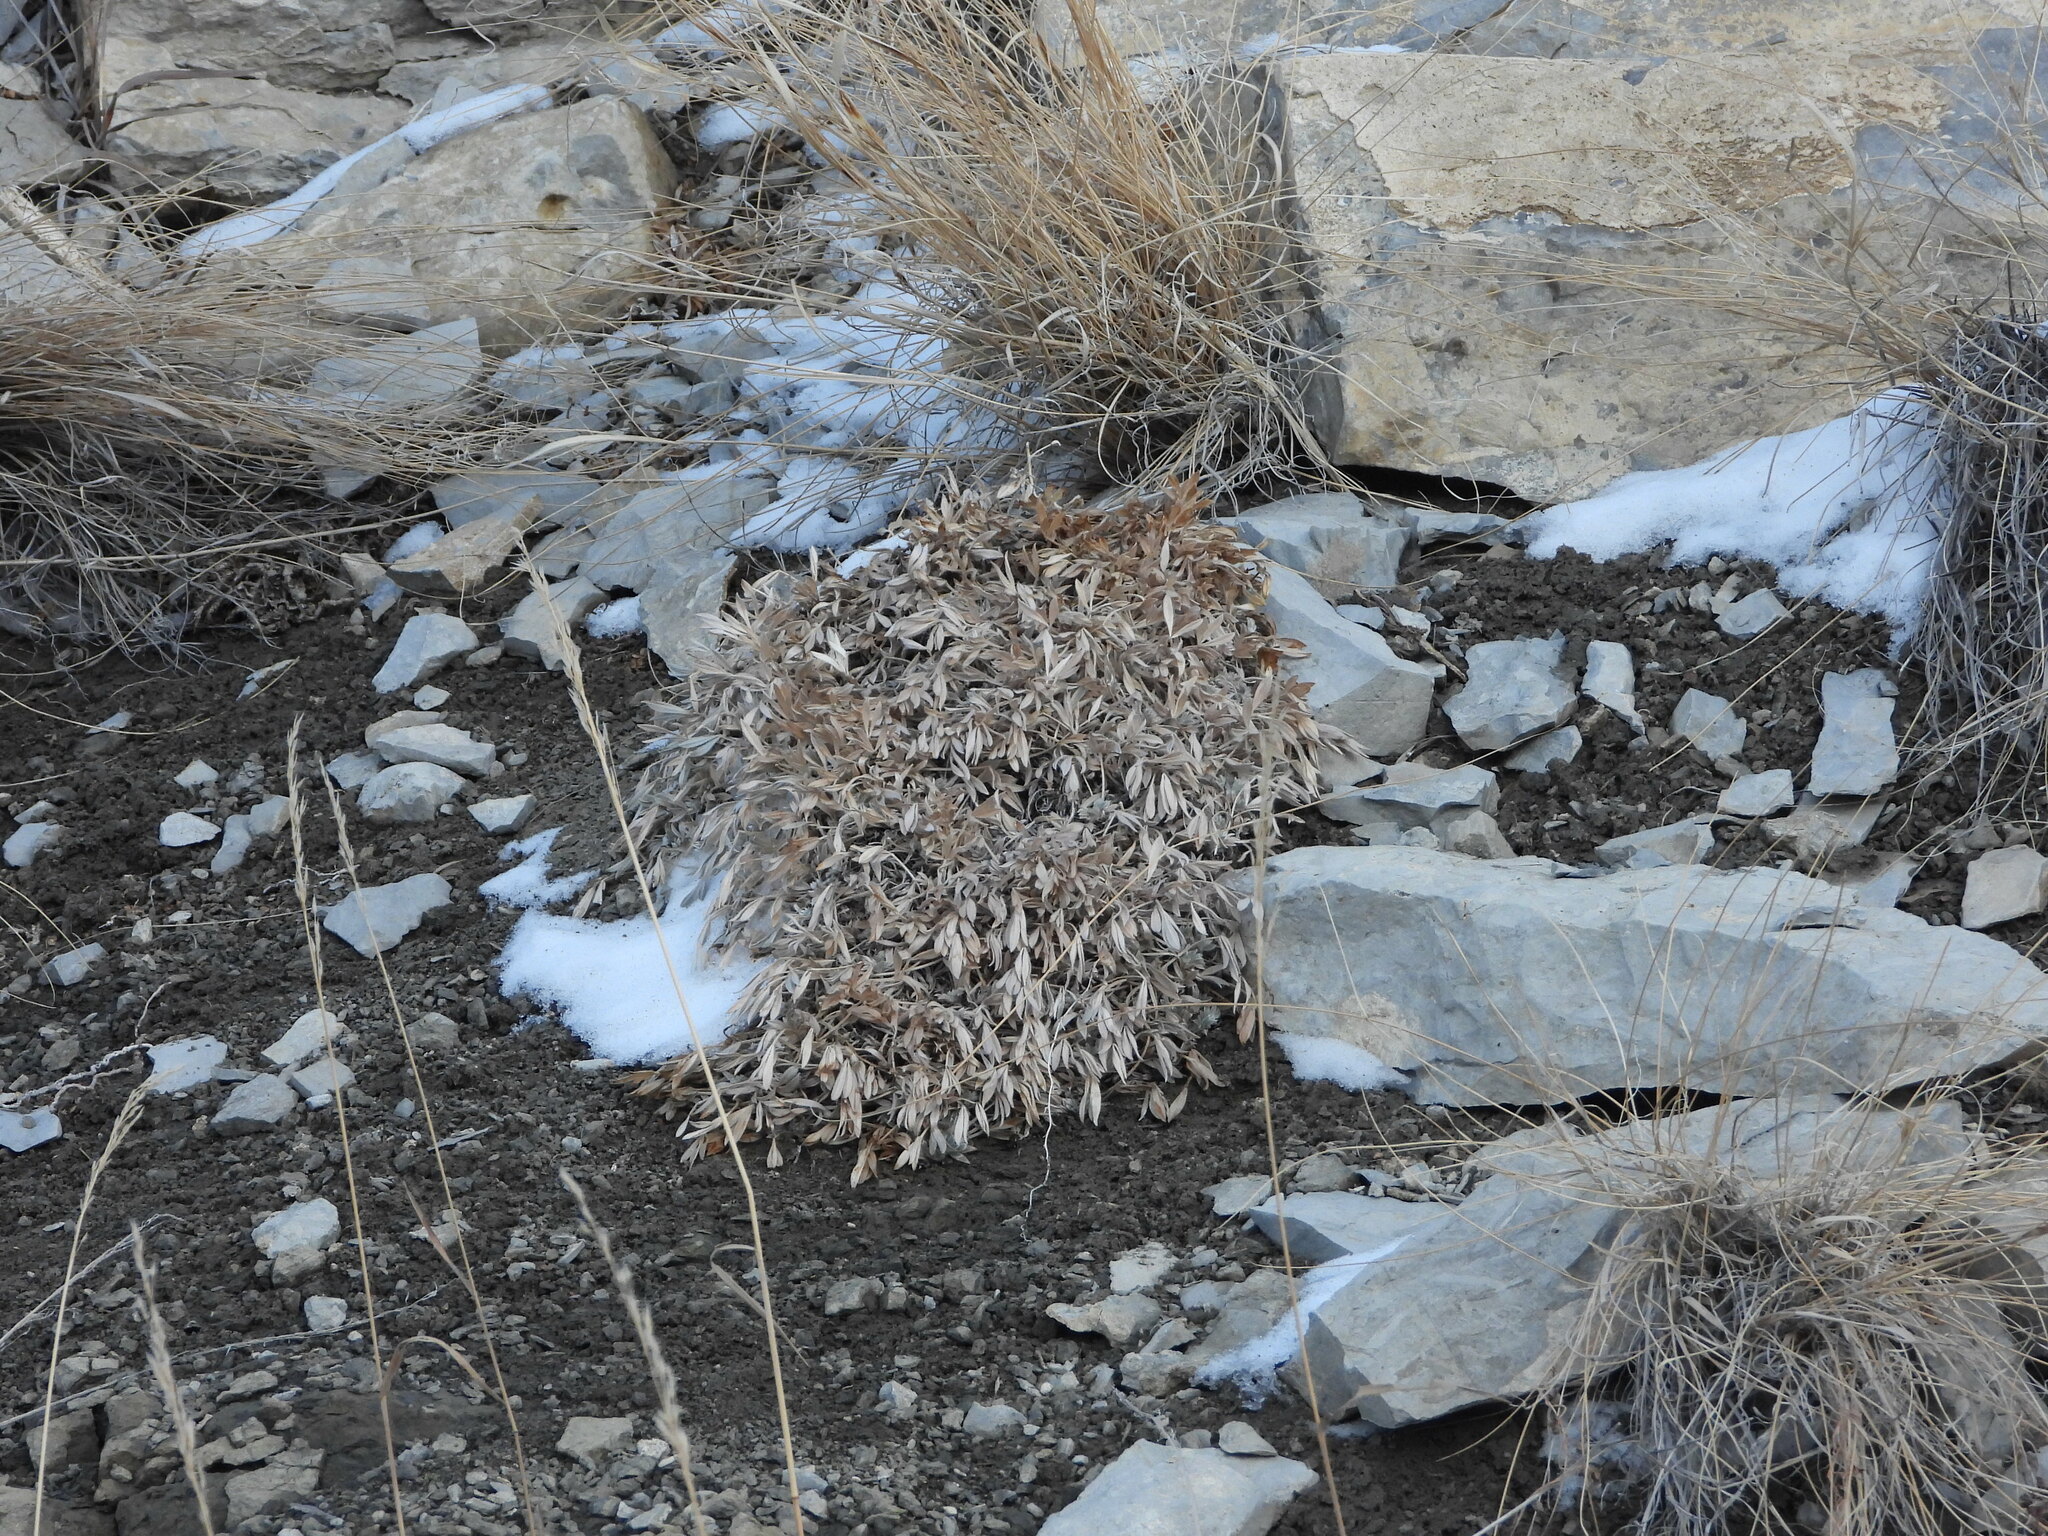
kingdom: Plantae
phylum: Tracheophyta
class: Magnoliopsida
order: Fabales
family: Fabaceae
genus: Astragalus
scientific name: Astragalus tridactylicus
